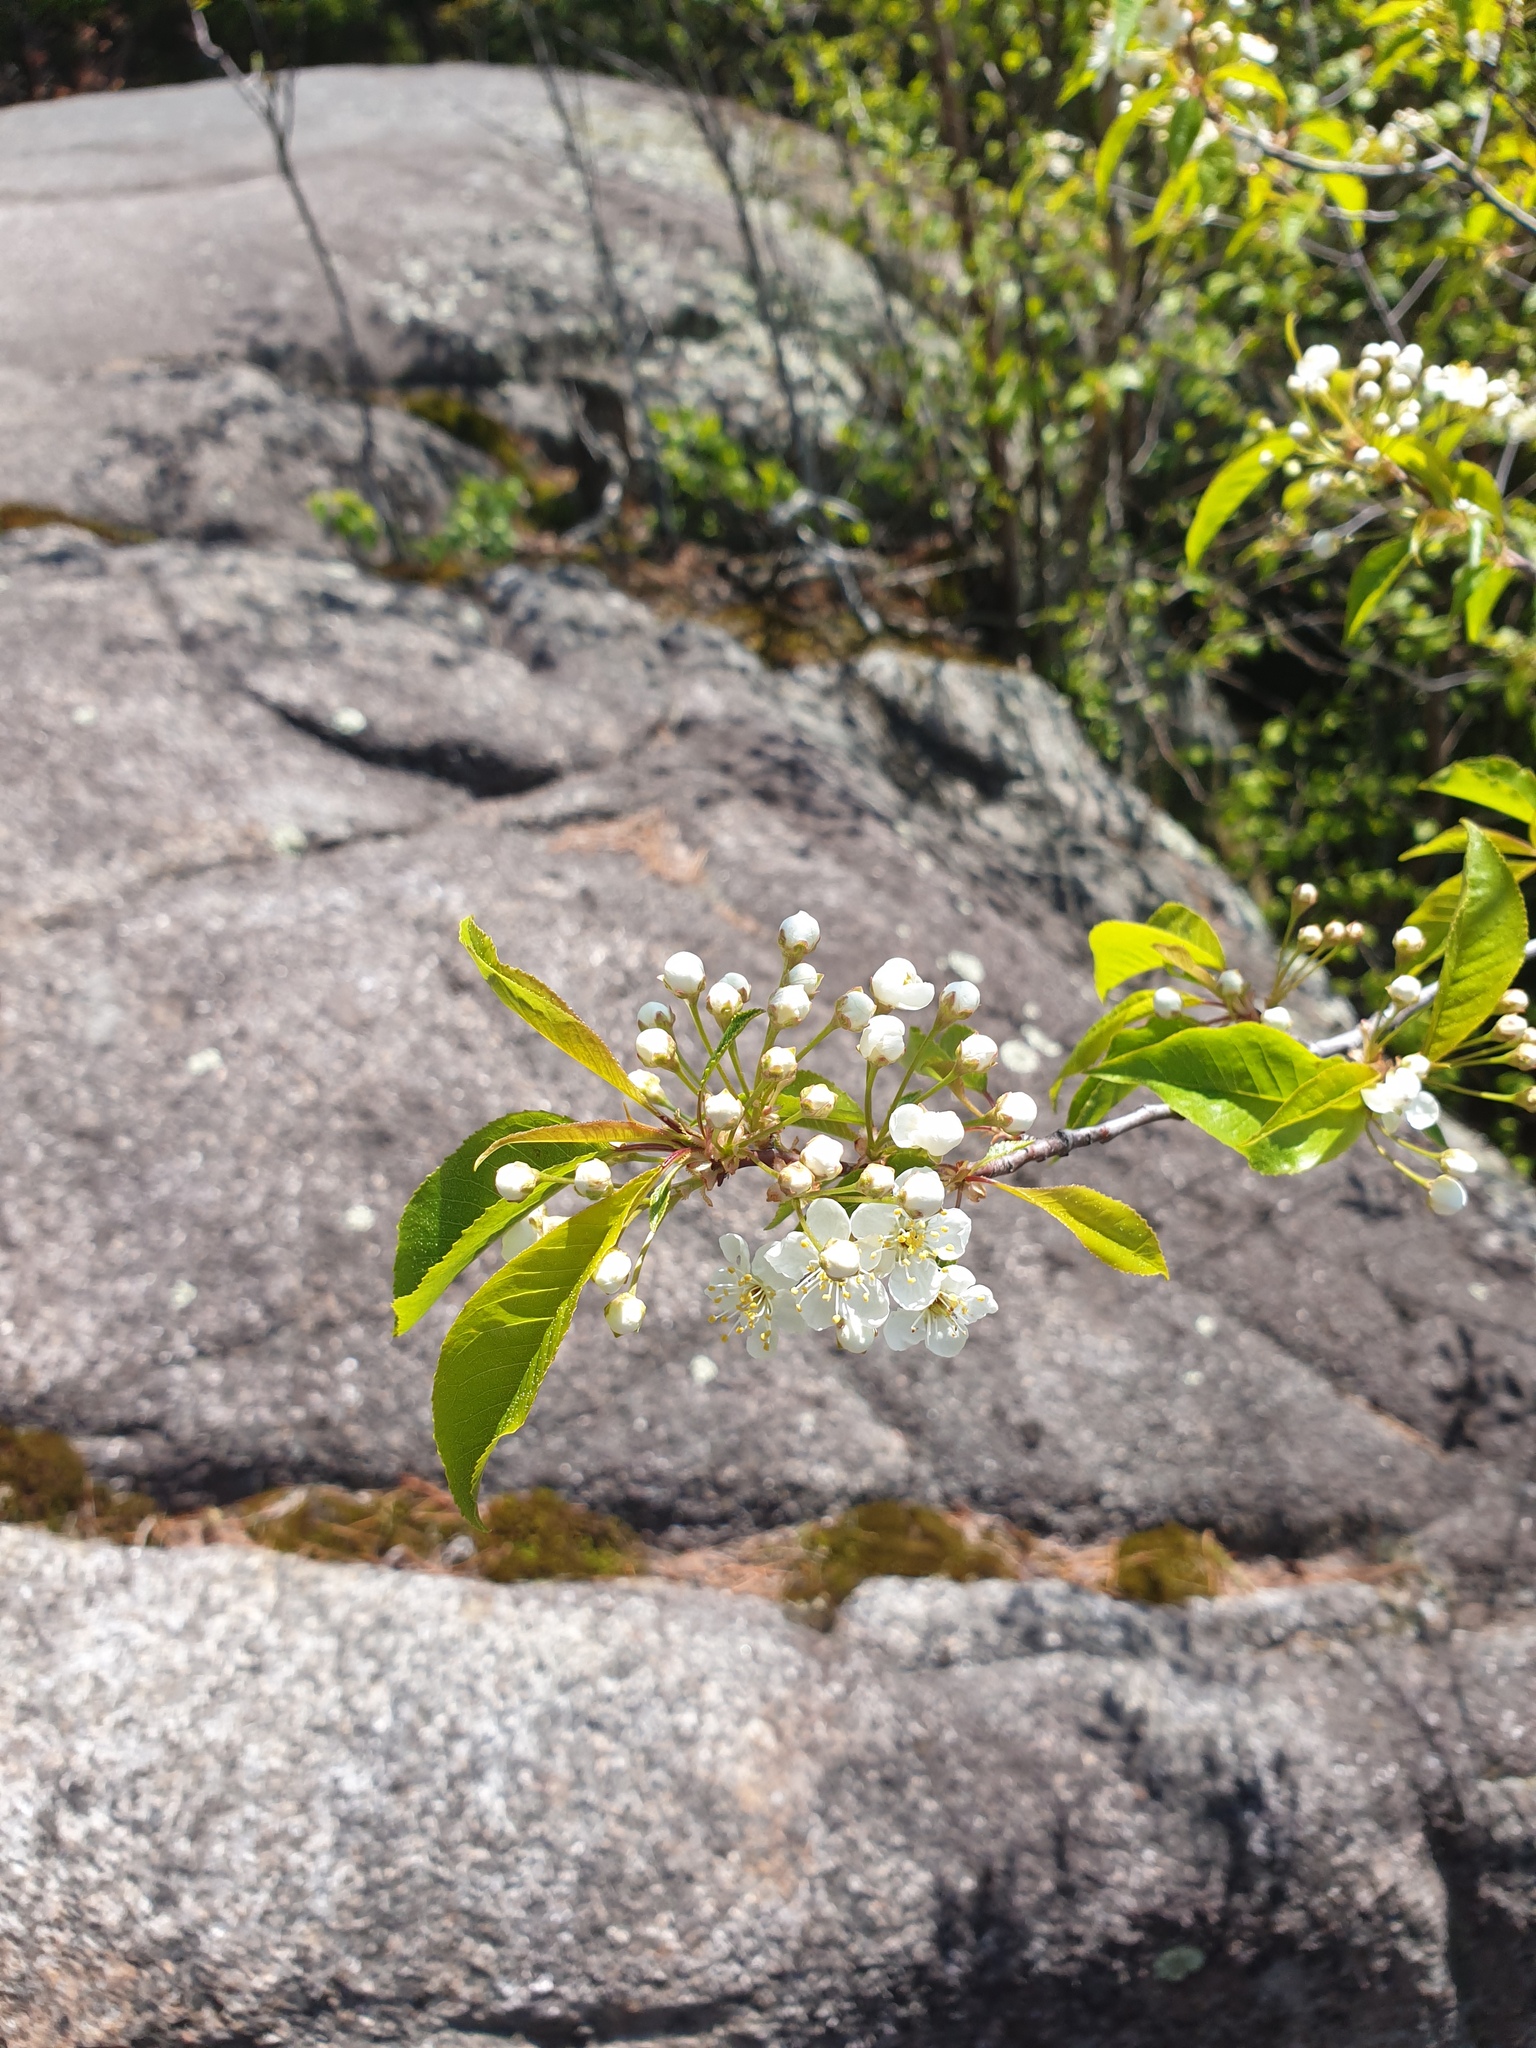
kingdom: Plantae
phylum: Tracheophyta
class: Magnoliopsida
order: Rosales
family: Rosaceae
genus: Prunus
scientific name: Prunus pensylvanica
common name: Pin cherry
